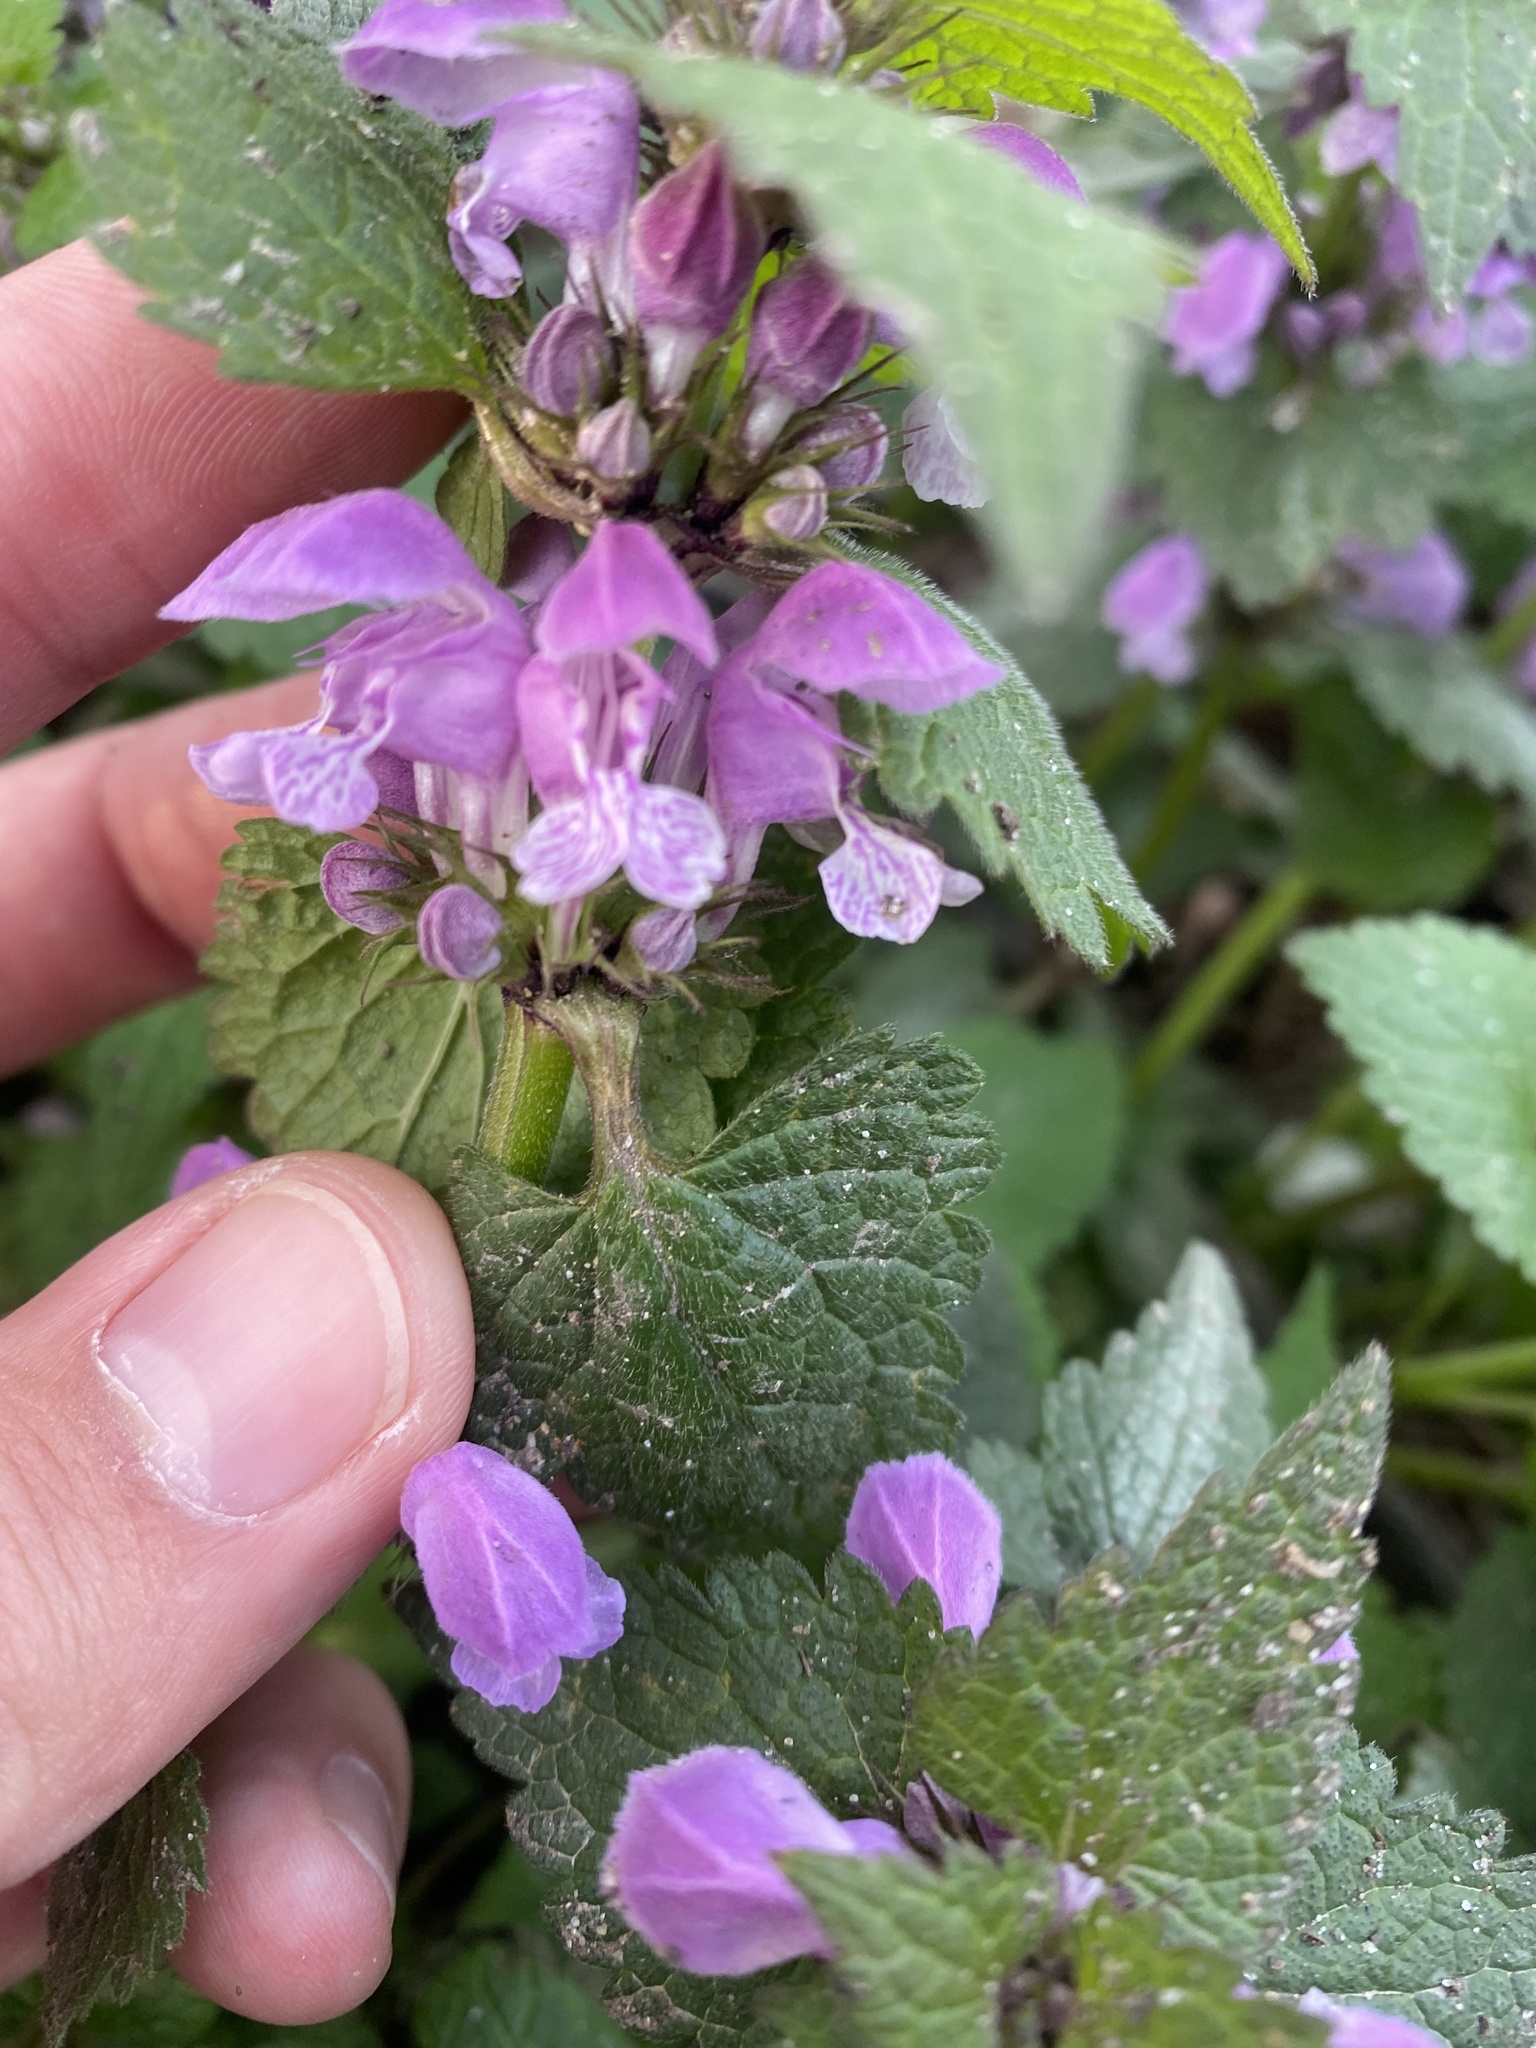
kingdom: Plantae
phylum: Tracheophyta
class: Magnoliopsida
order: Lamiales
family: Lamiaceae
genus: Lamium
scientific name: Lamium maculatum
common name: Spotted dead-nettle
